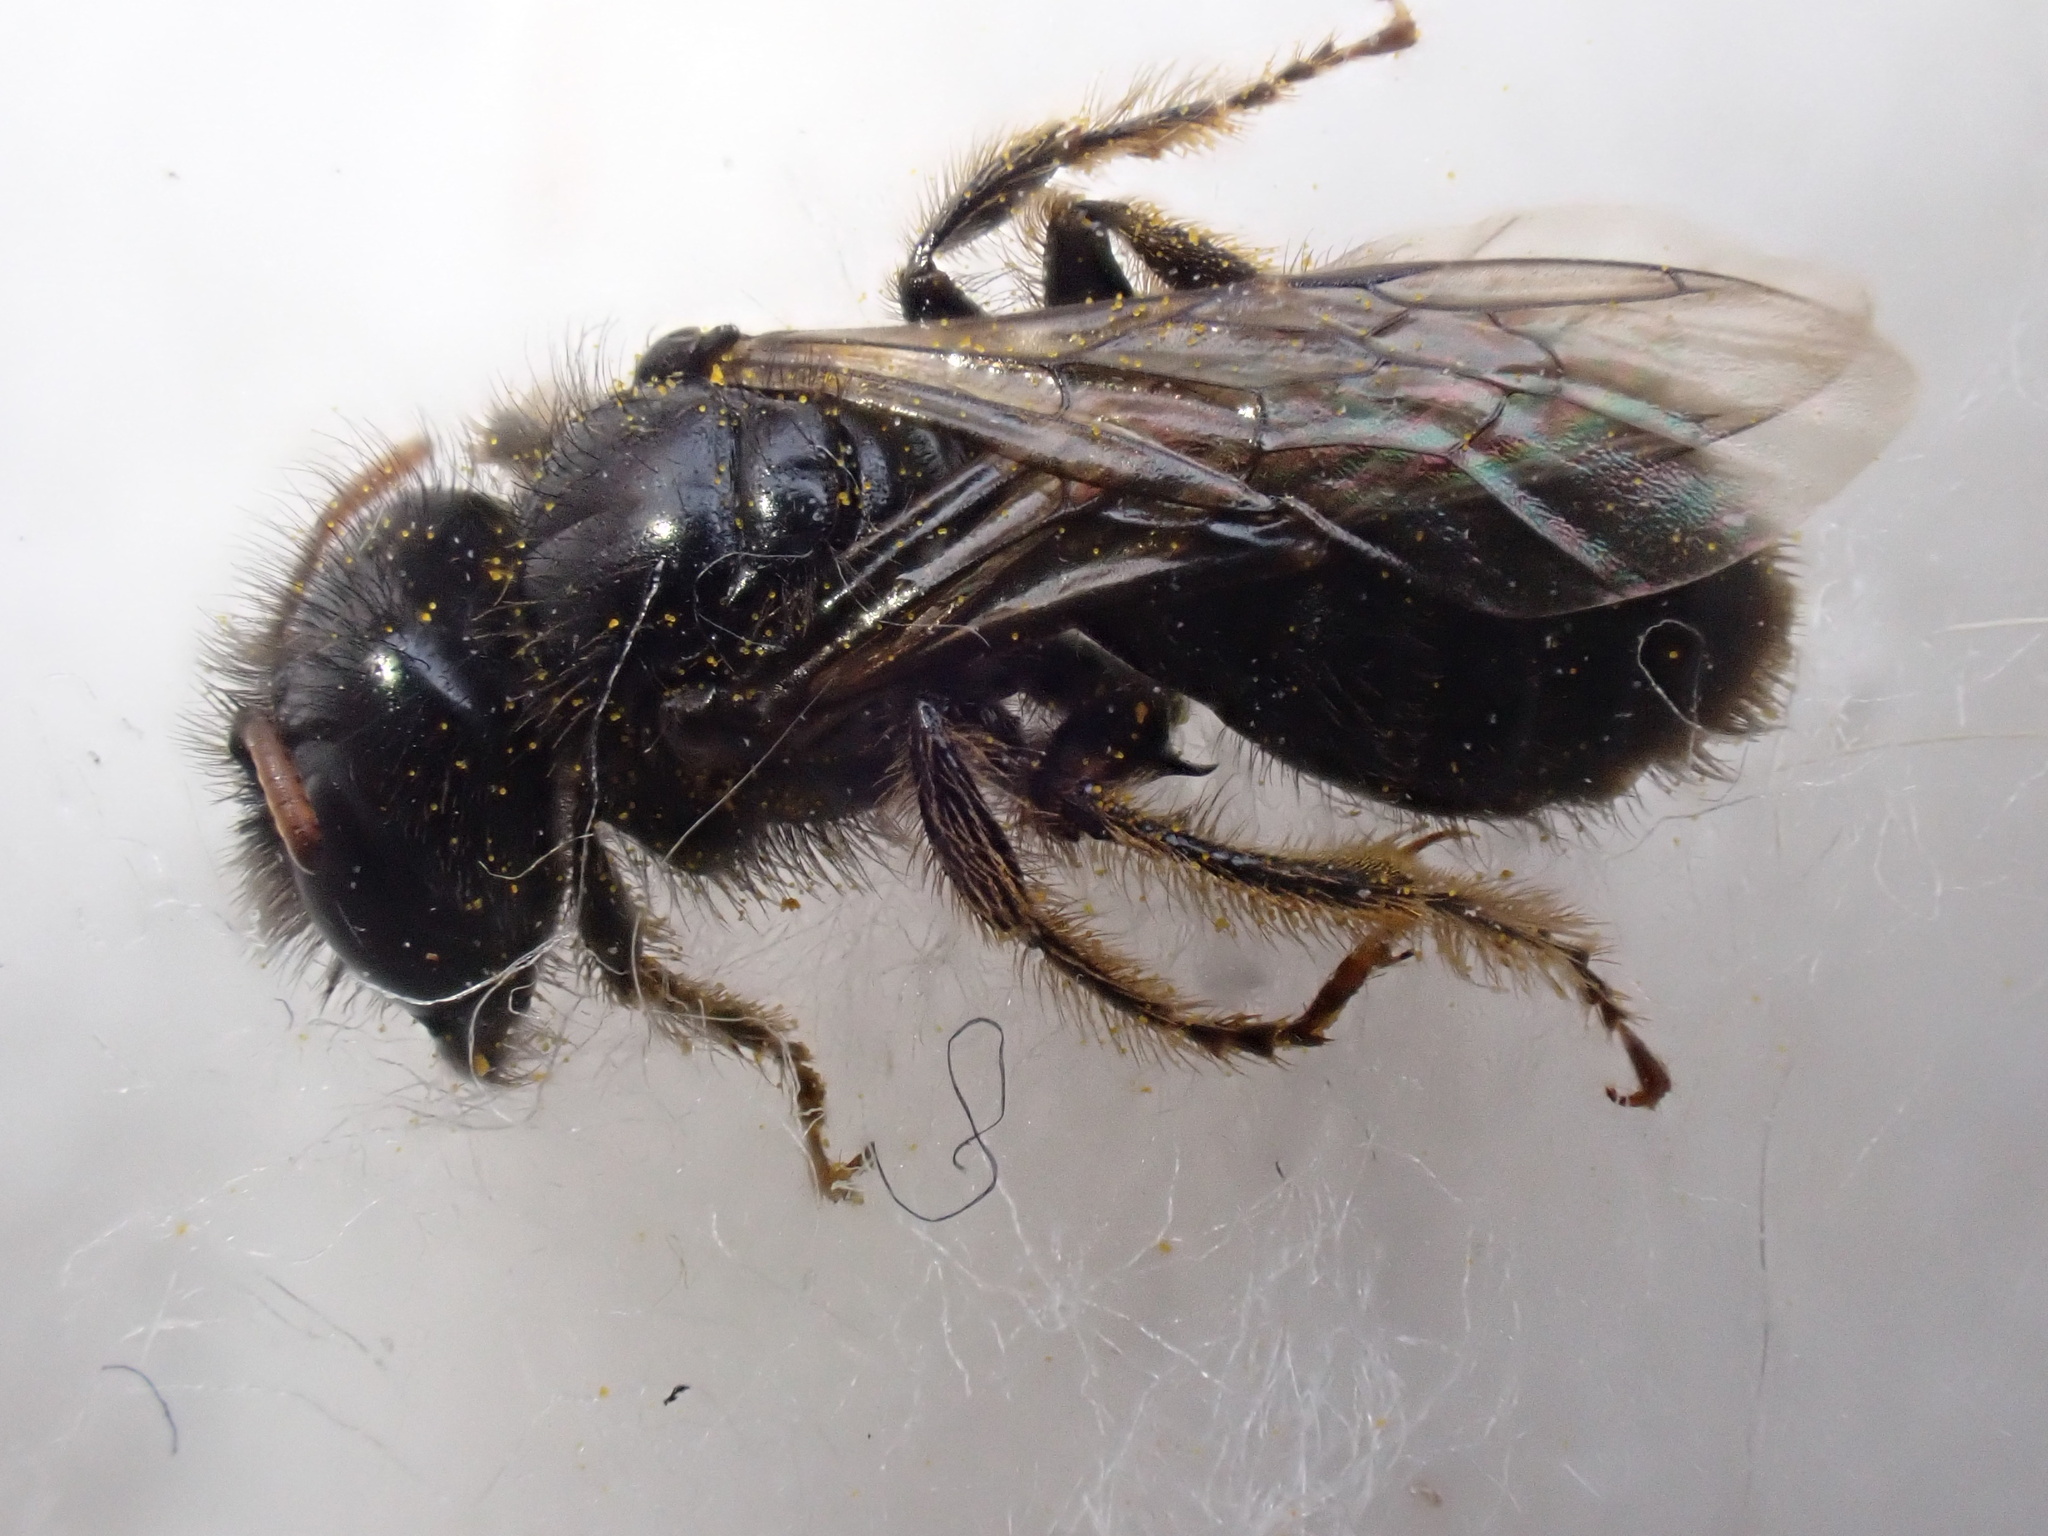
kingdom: Animalia
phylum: Arthropoda
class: Insecta
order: Hymenoptera
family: Andrenidae
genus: Panurgus
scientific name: Panurgus calcaratus
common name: Small shaggy bee
